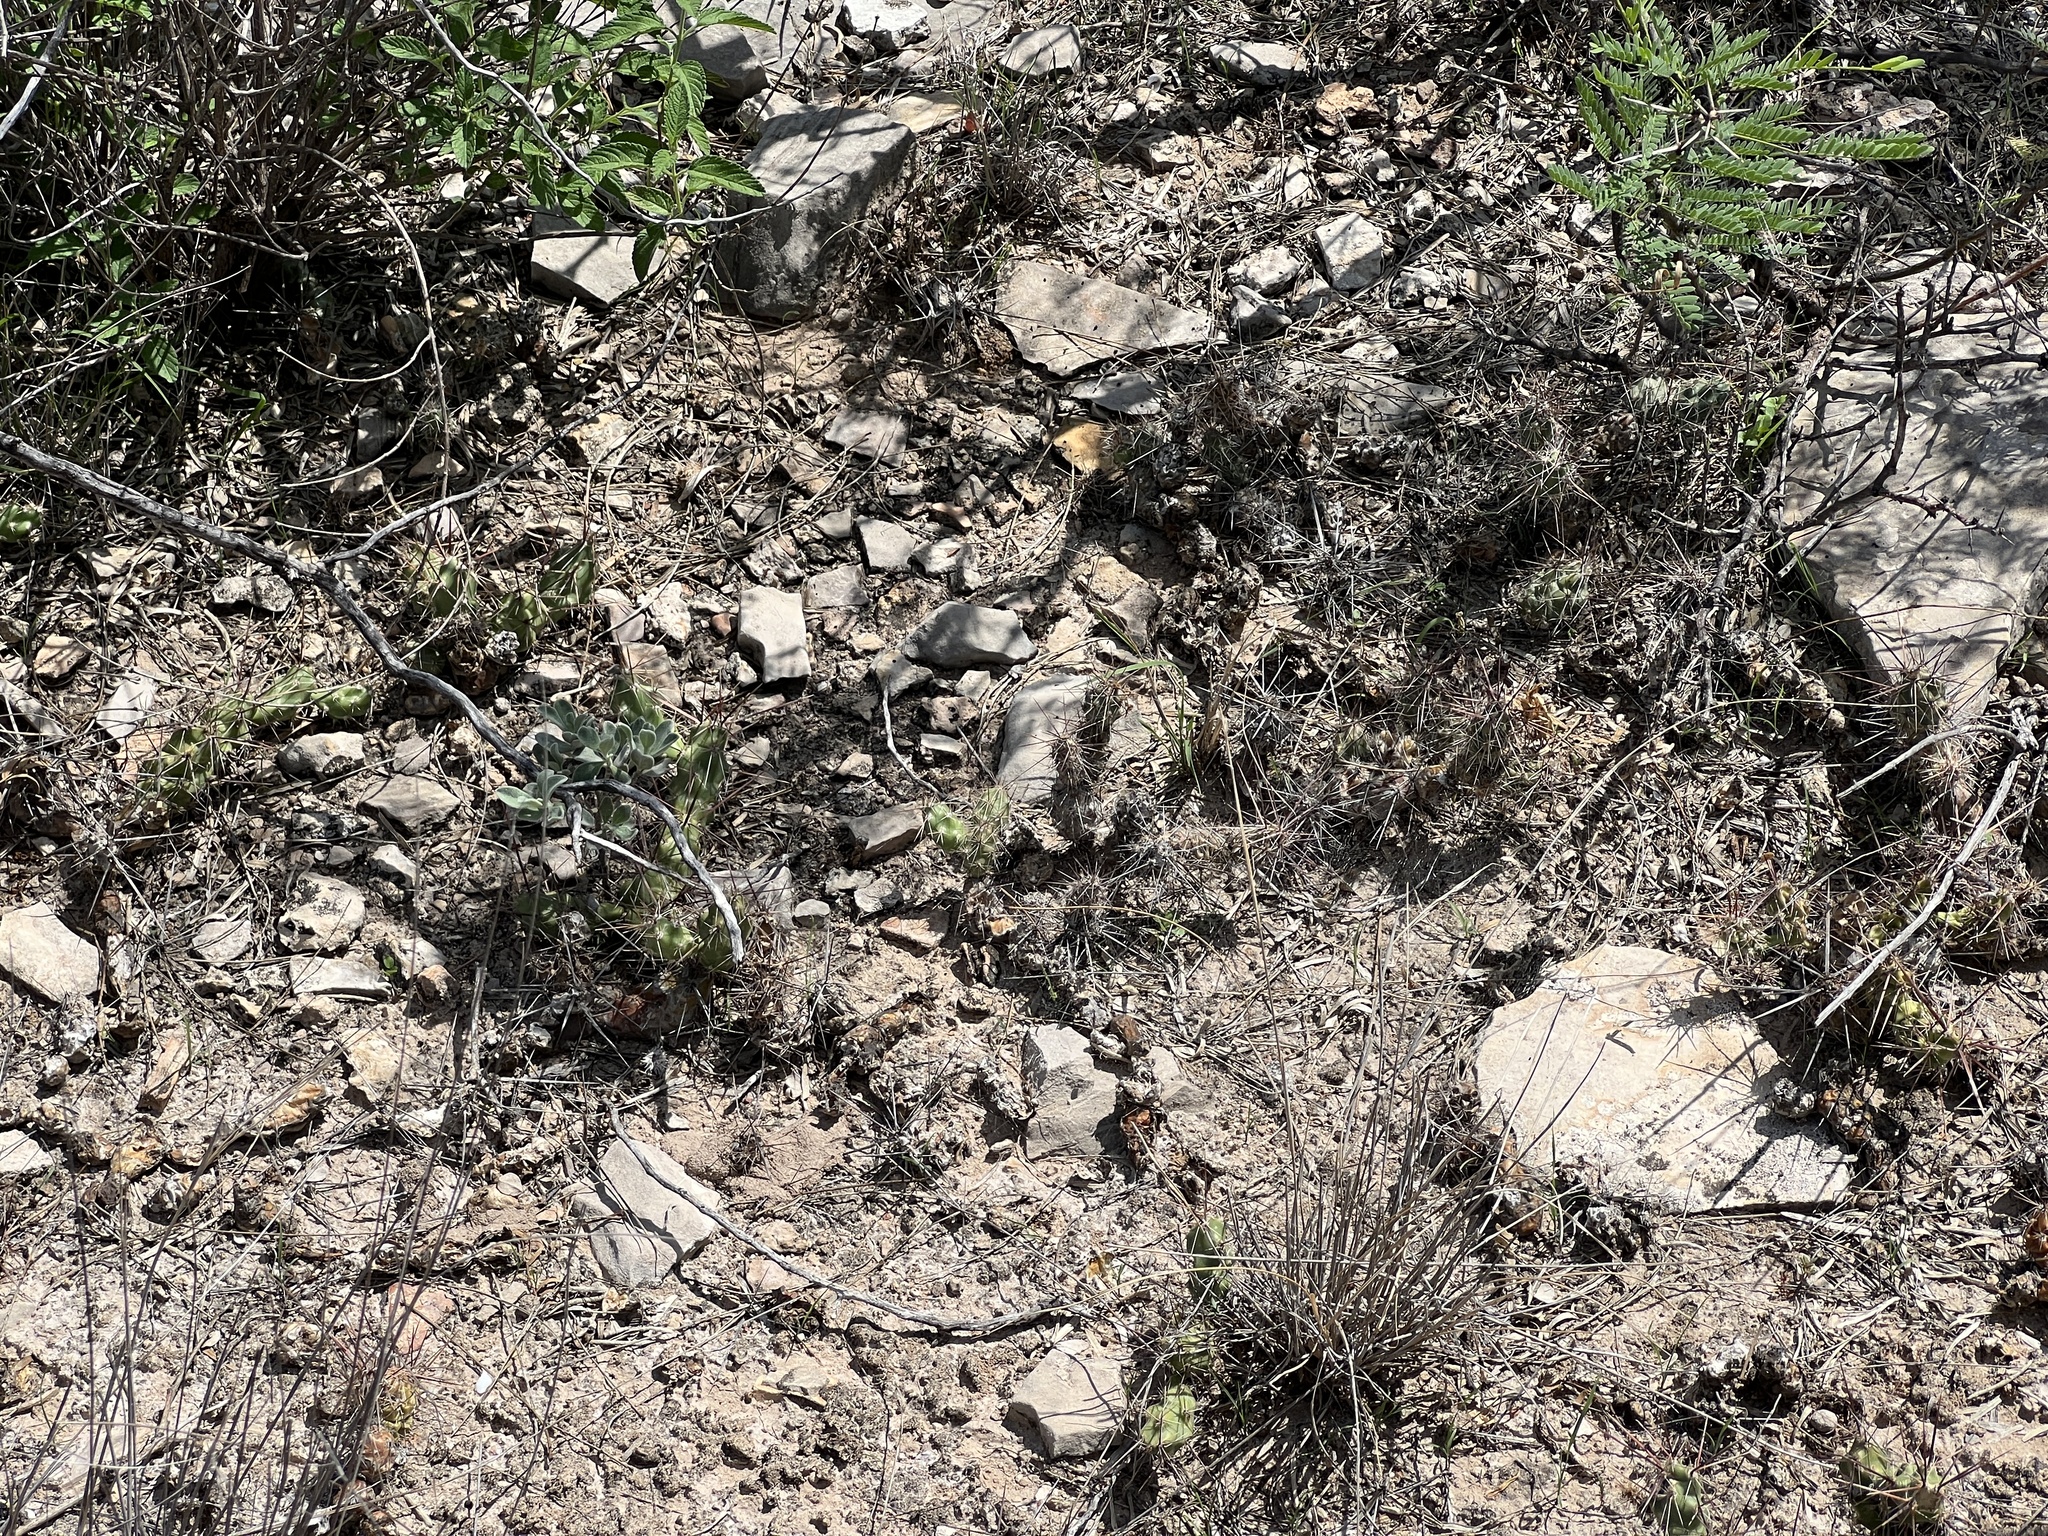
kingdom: Plantae
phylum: Tracheophyta
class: Magnoliopsida
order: Caryophyllales
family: Cactaceae
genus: Grusonia
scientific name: Grusonia schottii
